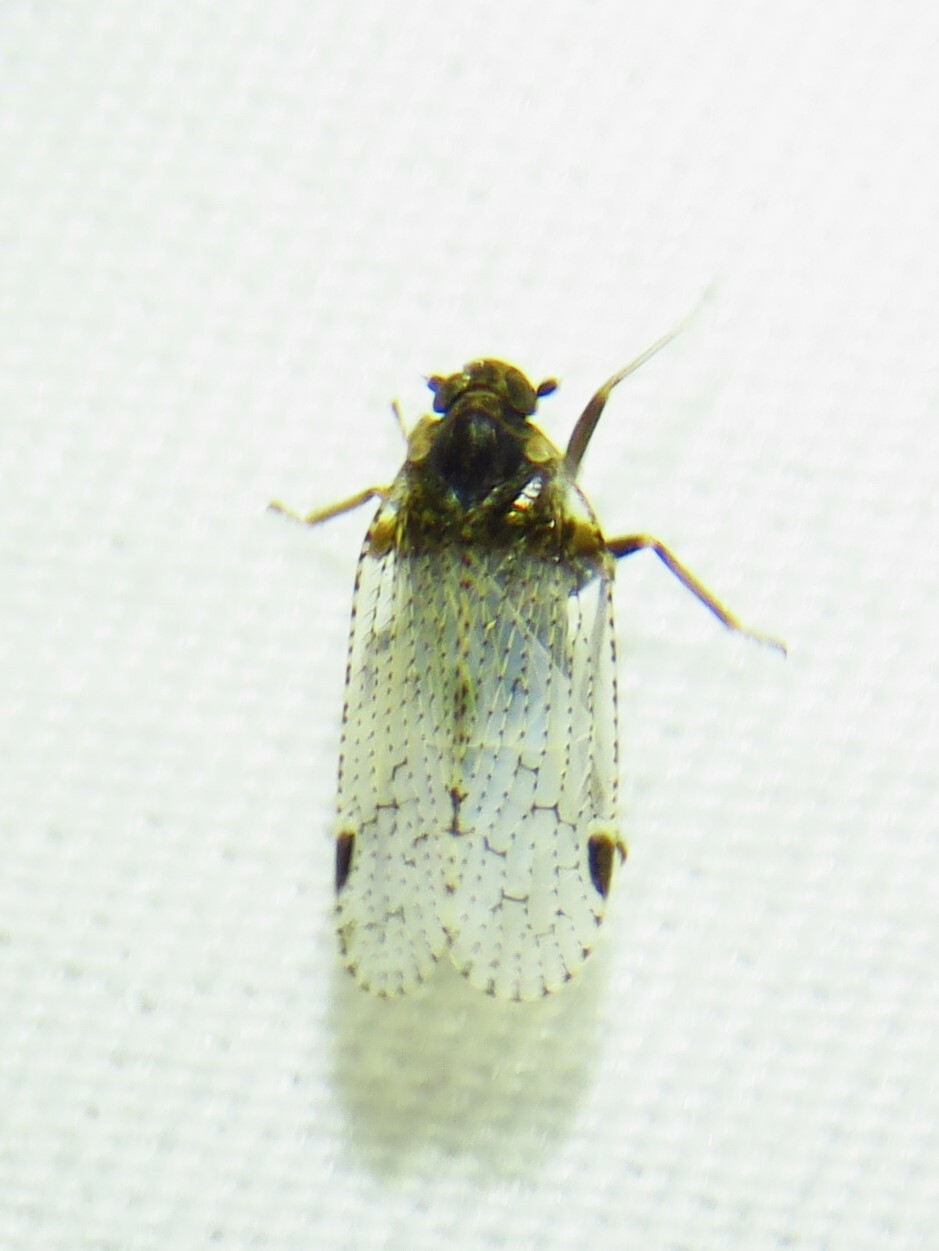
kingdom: Animalia
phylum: Arthropoda
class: Insecta
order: Hemiptera
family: Cixiidae
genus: Cixius
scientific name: Cixius stigmatus
